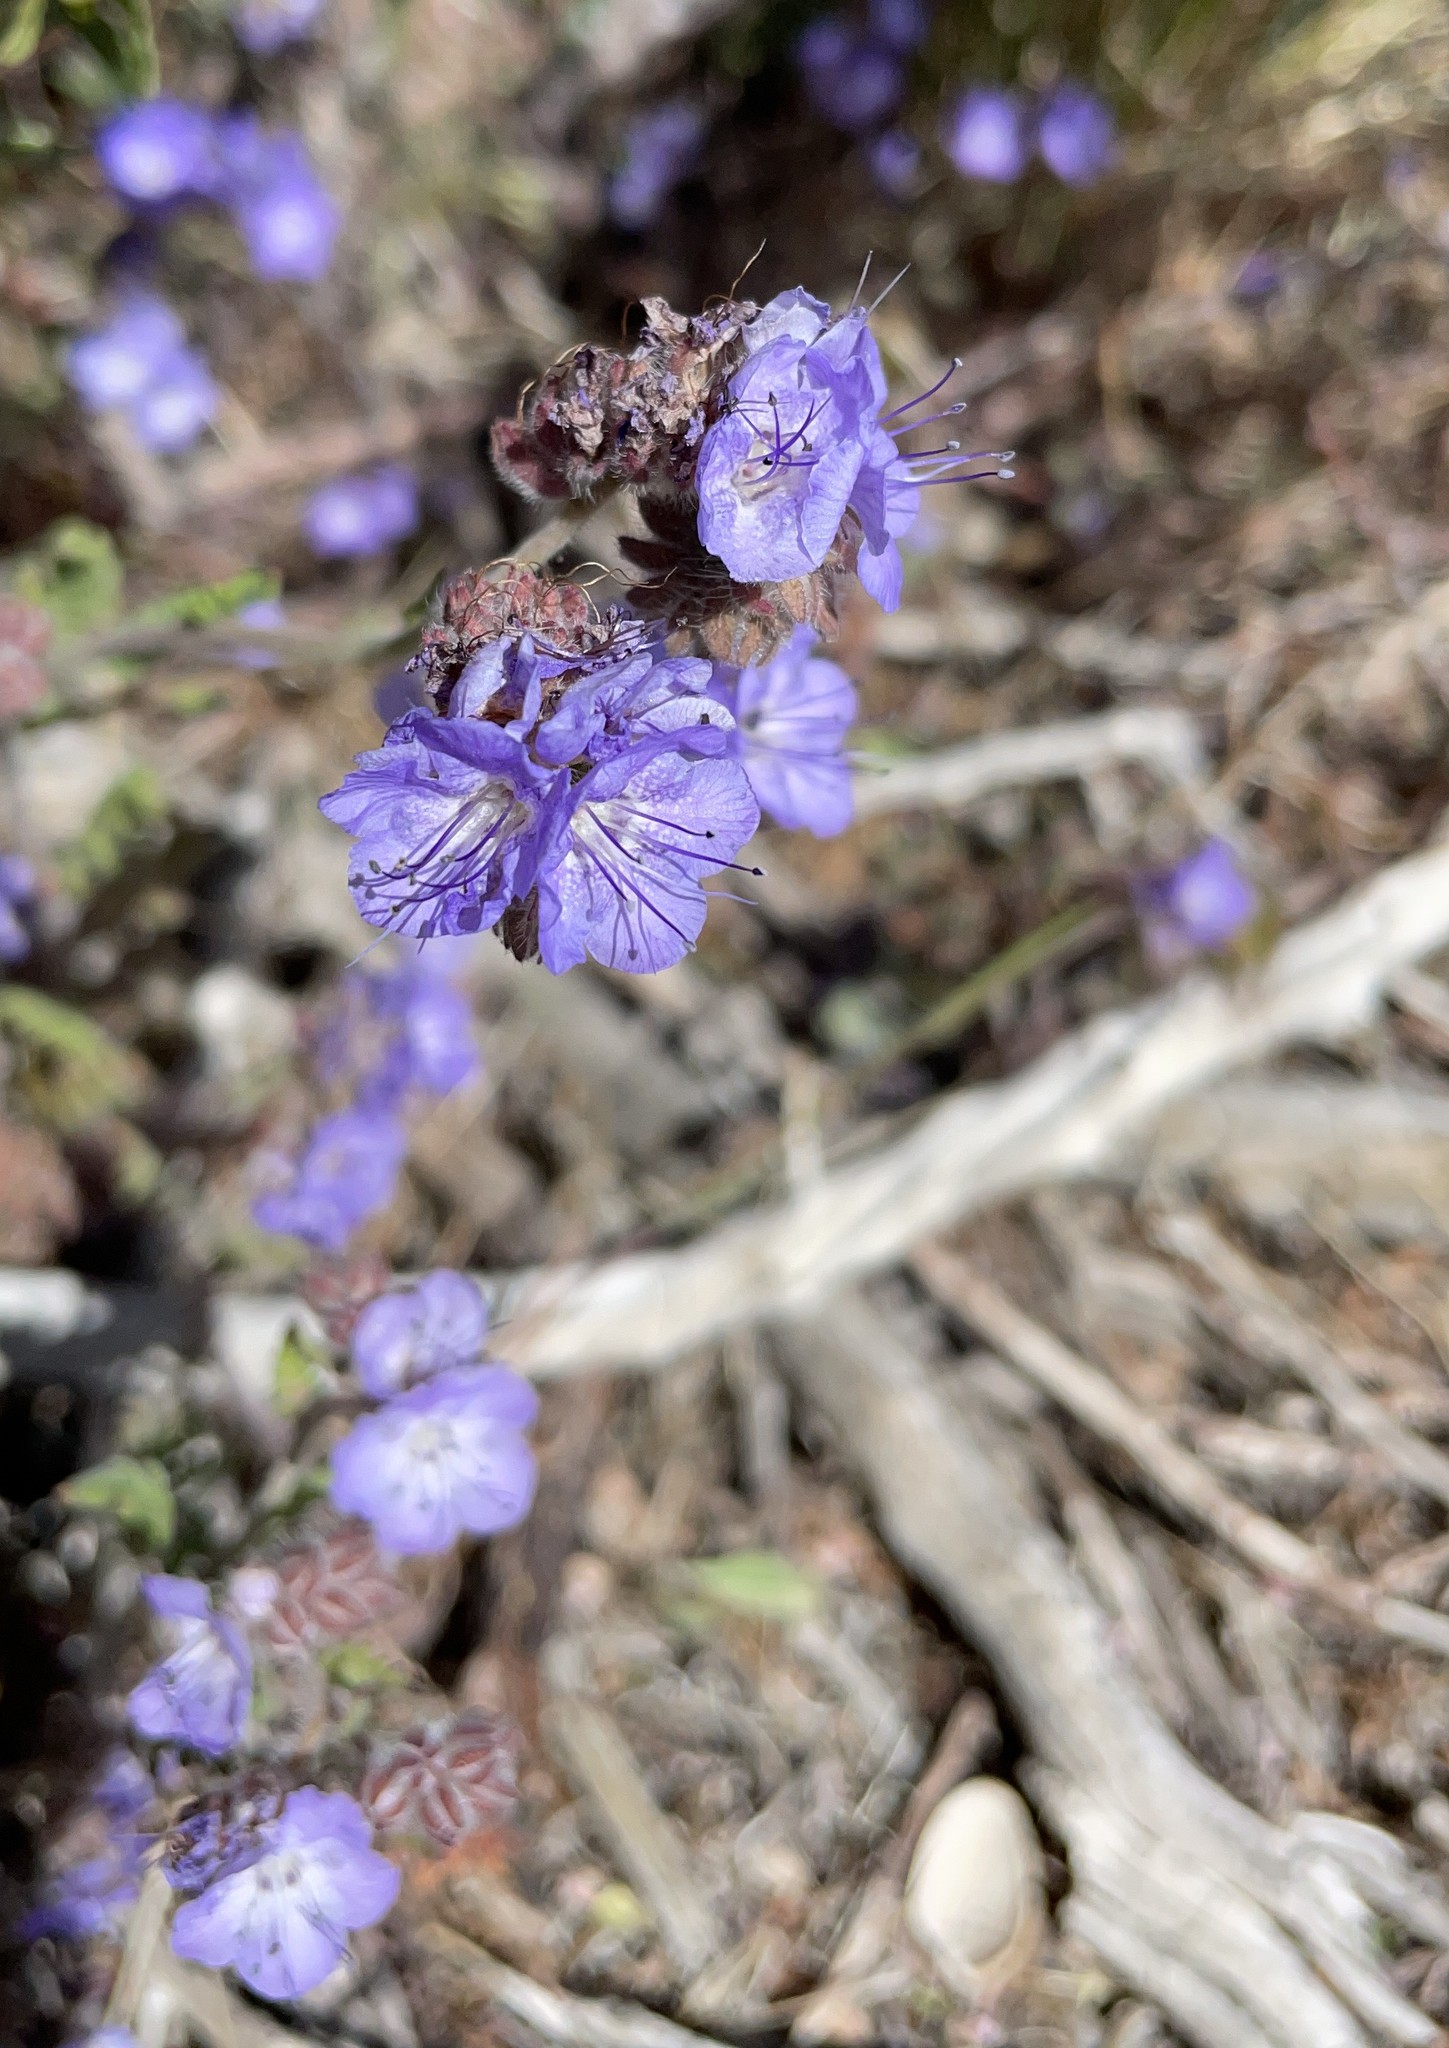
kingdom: Plantae
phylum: Tracheophyta
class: Magnoliopsida
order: Boraginales
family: Hydrophyllaceae
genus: Phacelia
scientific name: Phacelia distans
